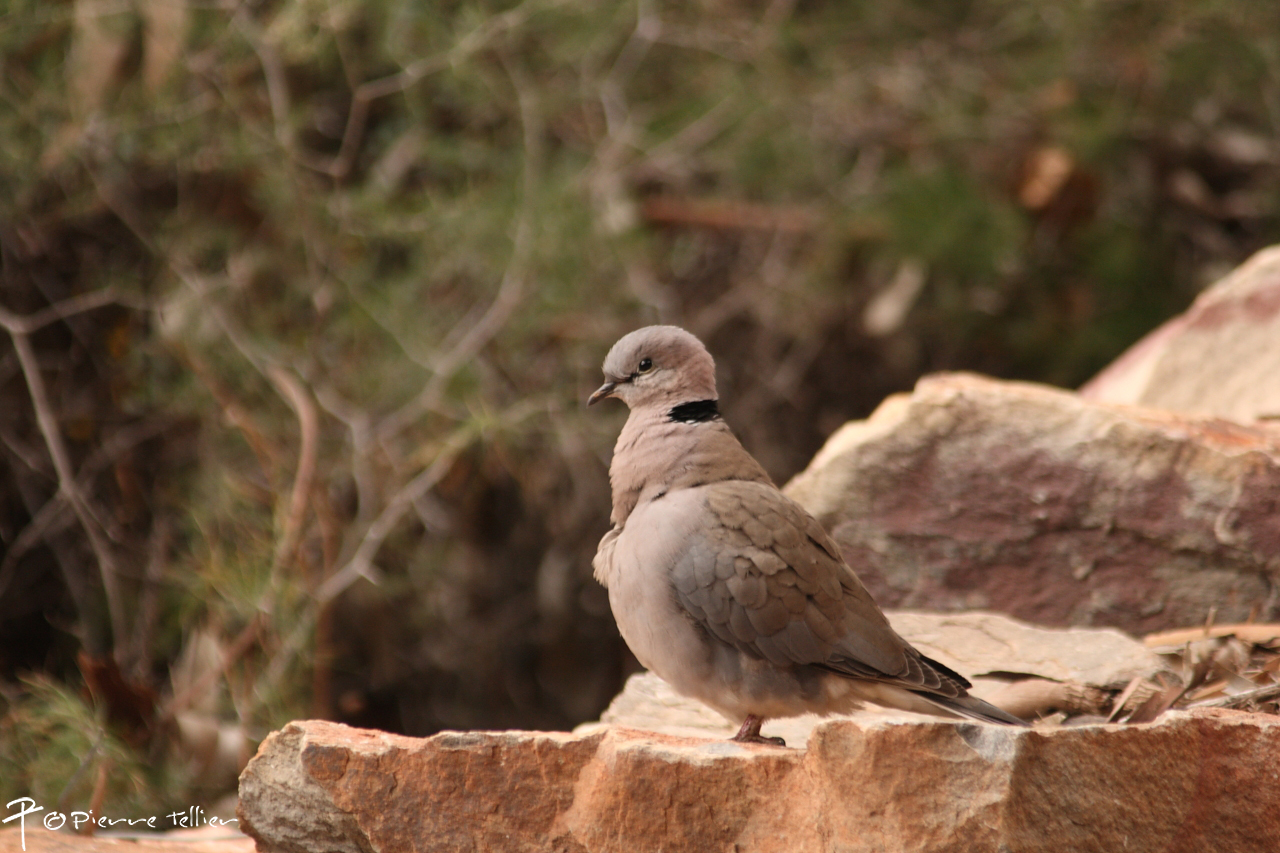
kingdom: Animalia
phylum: Chordata
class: Aves
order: Columbiformes
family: Columbidae
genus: Streptopelia
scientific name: Streptopelia capicola
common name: Ring-necked dove
